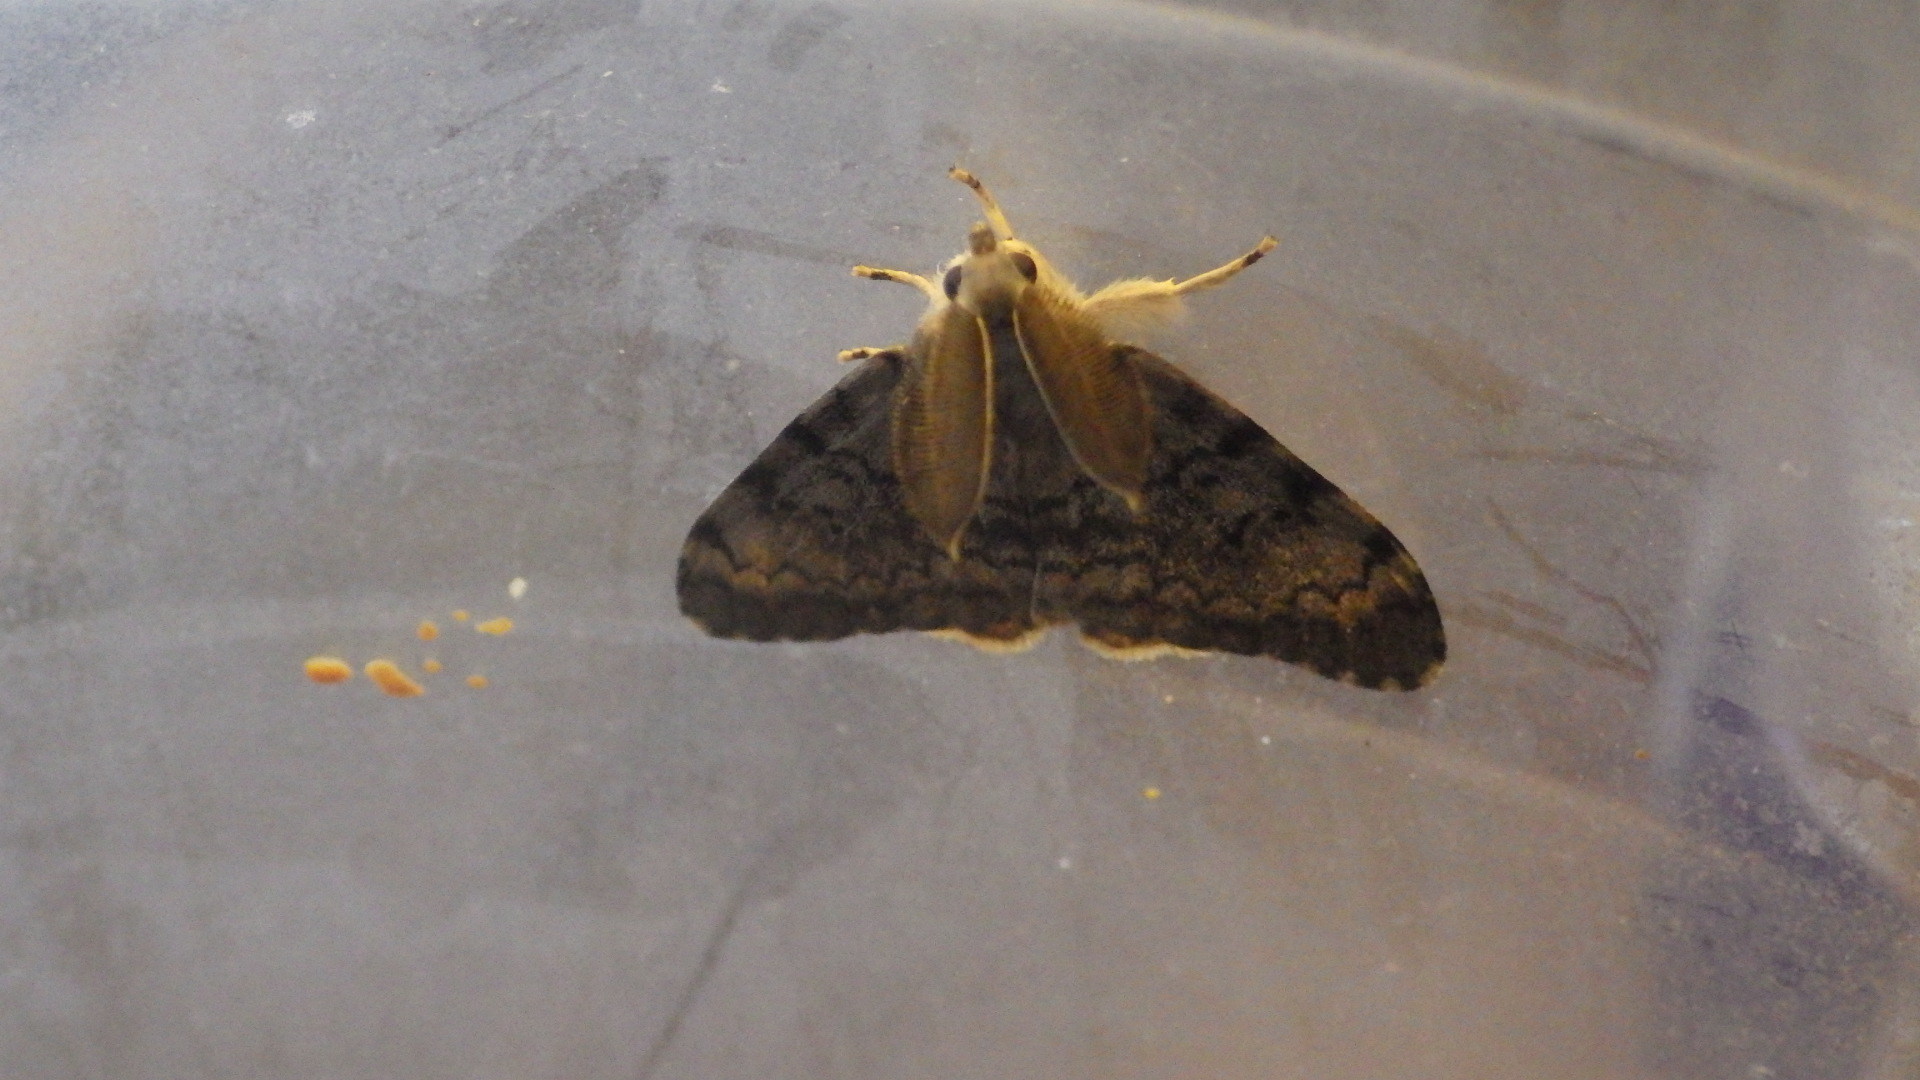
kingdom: Animalia
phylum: Arthropoda
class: Insecta
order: Lepidoptera
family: Erebidae
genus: Lymantria
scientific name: Lymantria dispar
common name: Gypsy moth
